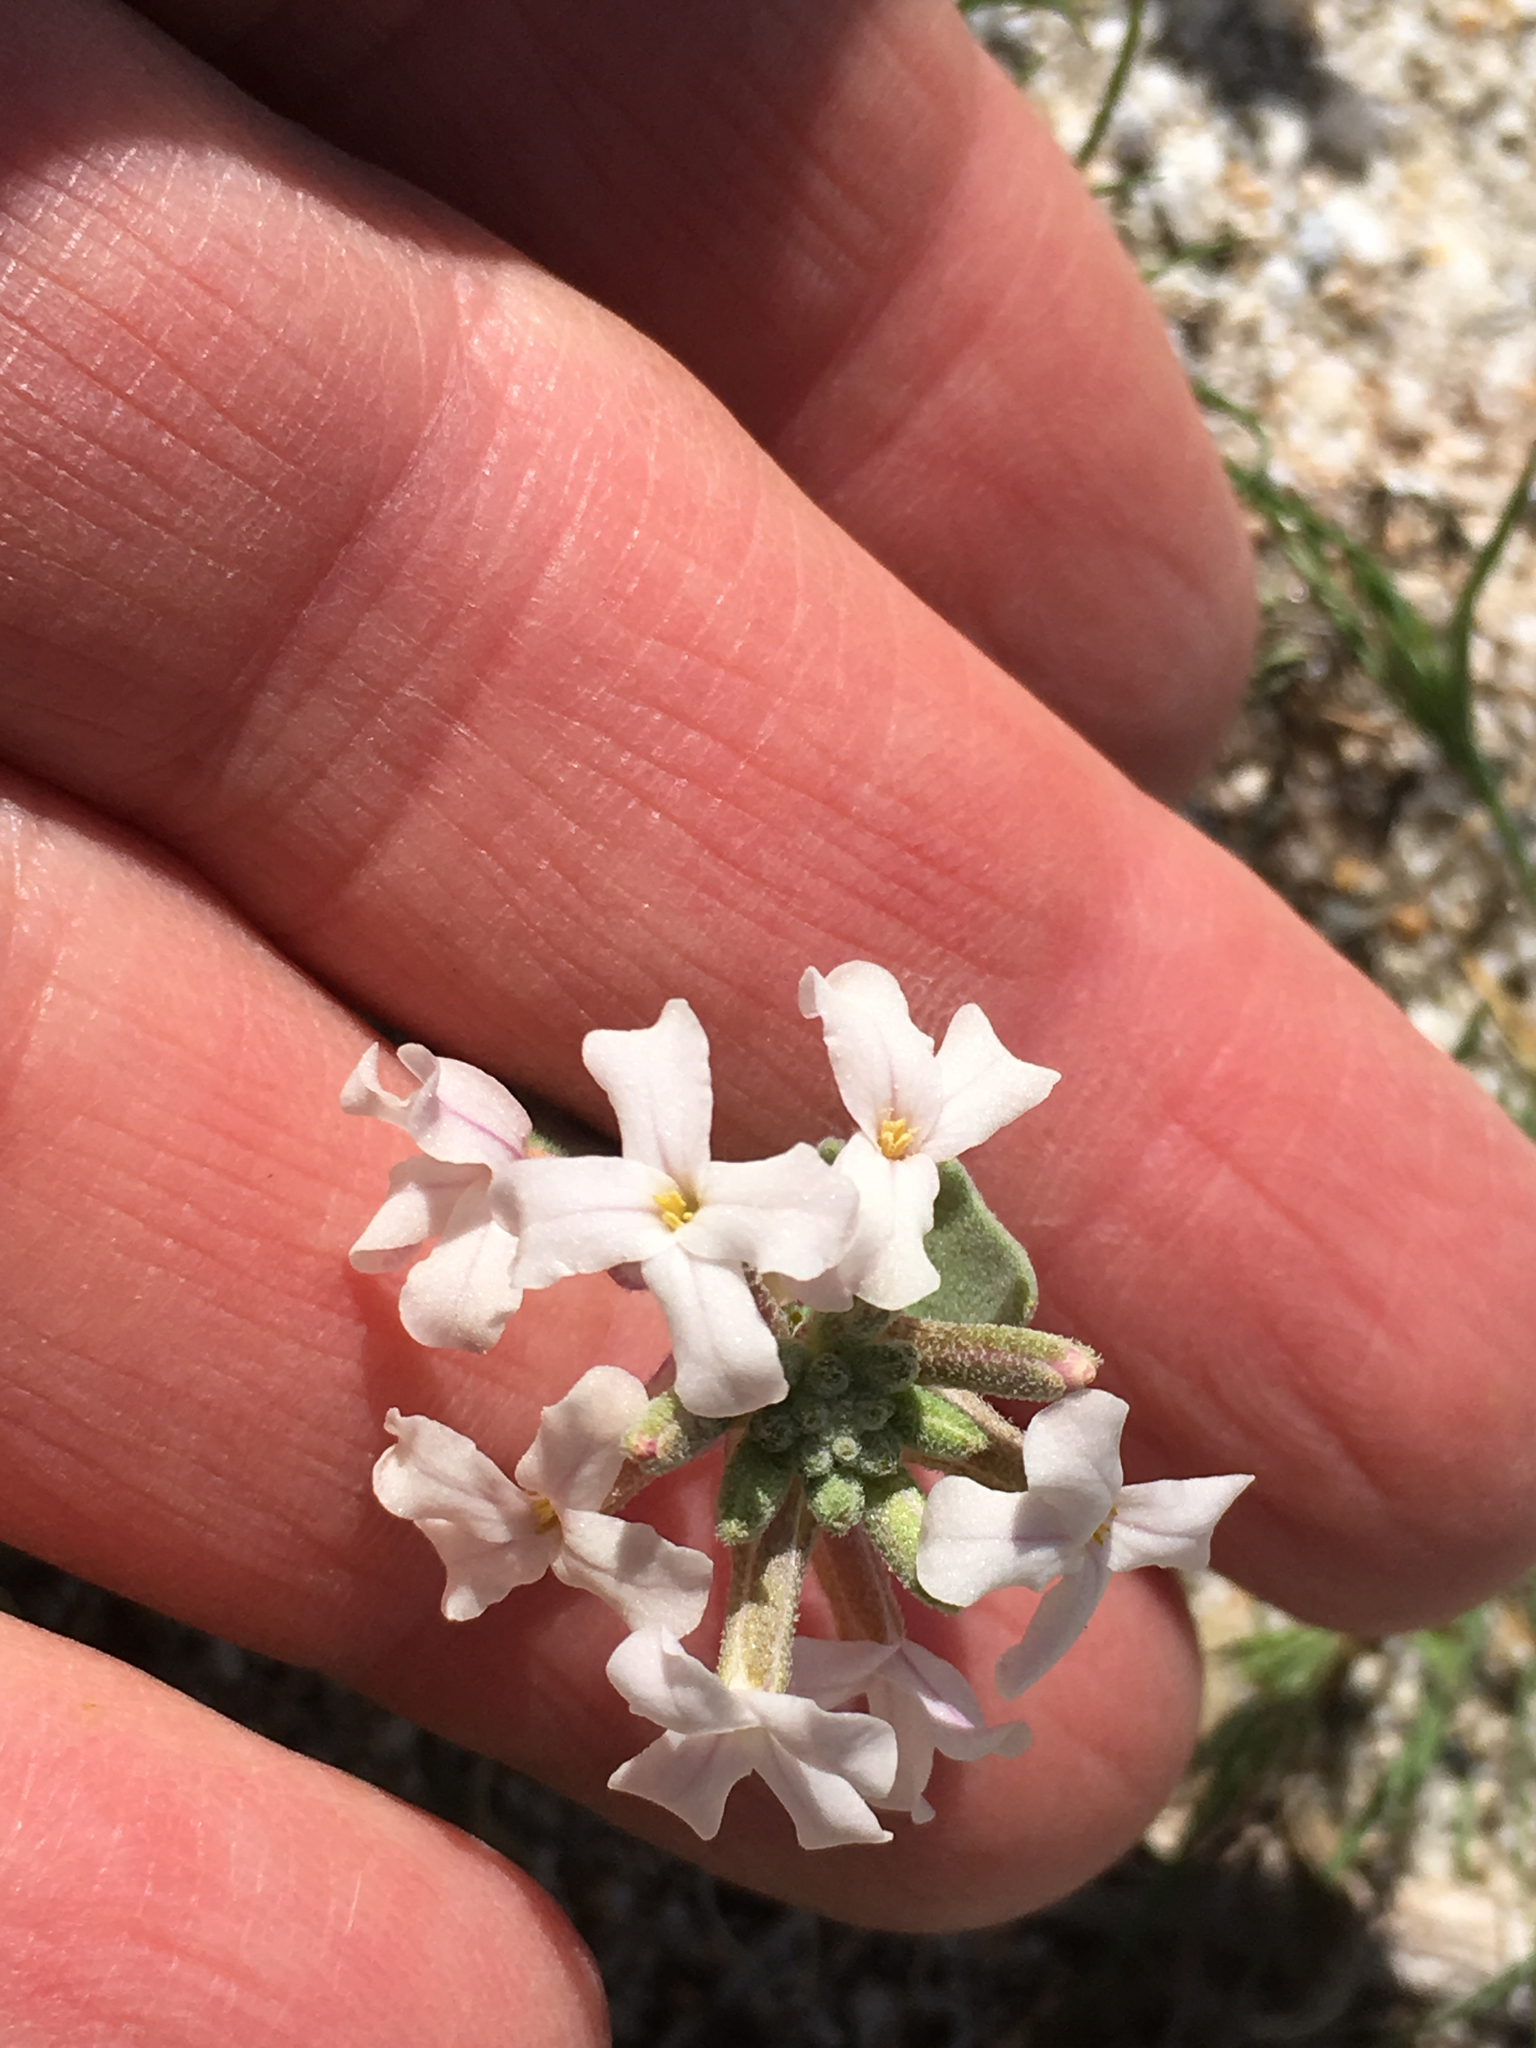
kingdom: Plantae
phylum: Tracheophyta
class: Magnoliopsida
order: Brassicales
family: Brassicaceae
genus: Dithyrea
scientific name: Dithyrea californica
